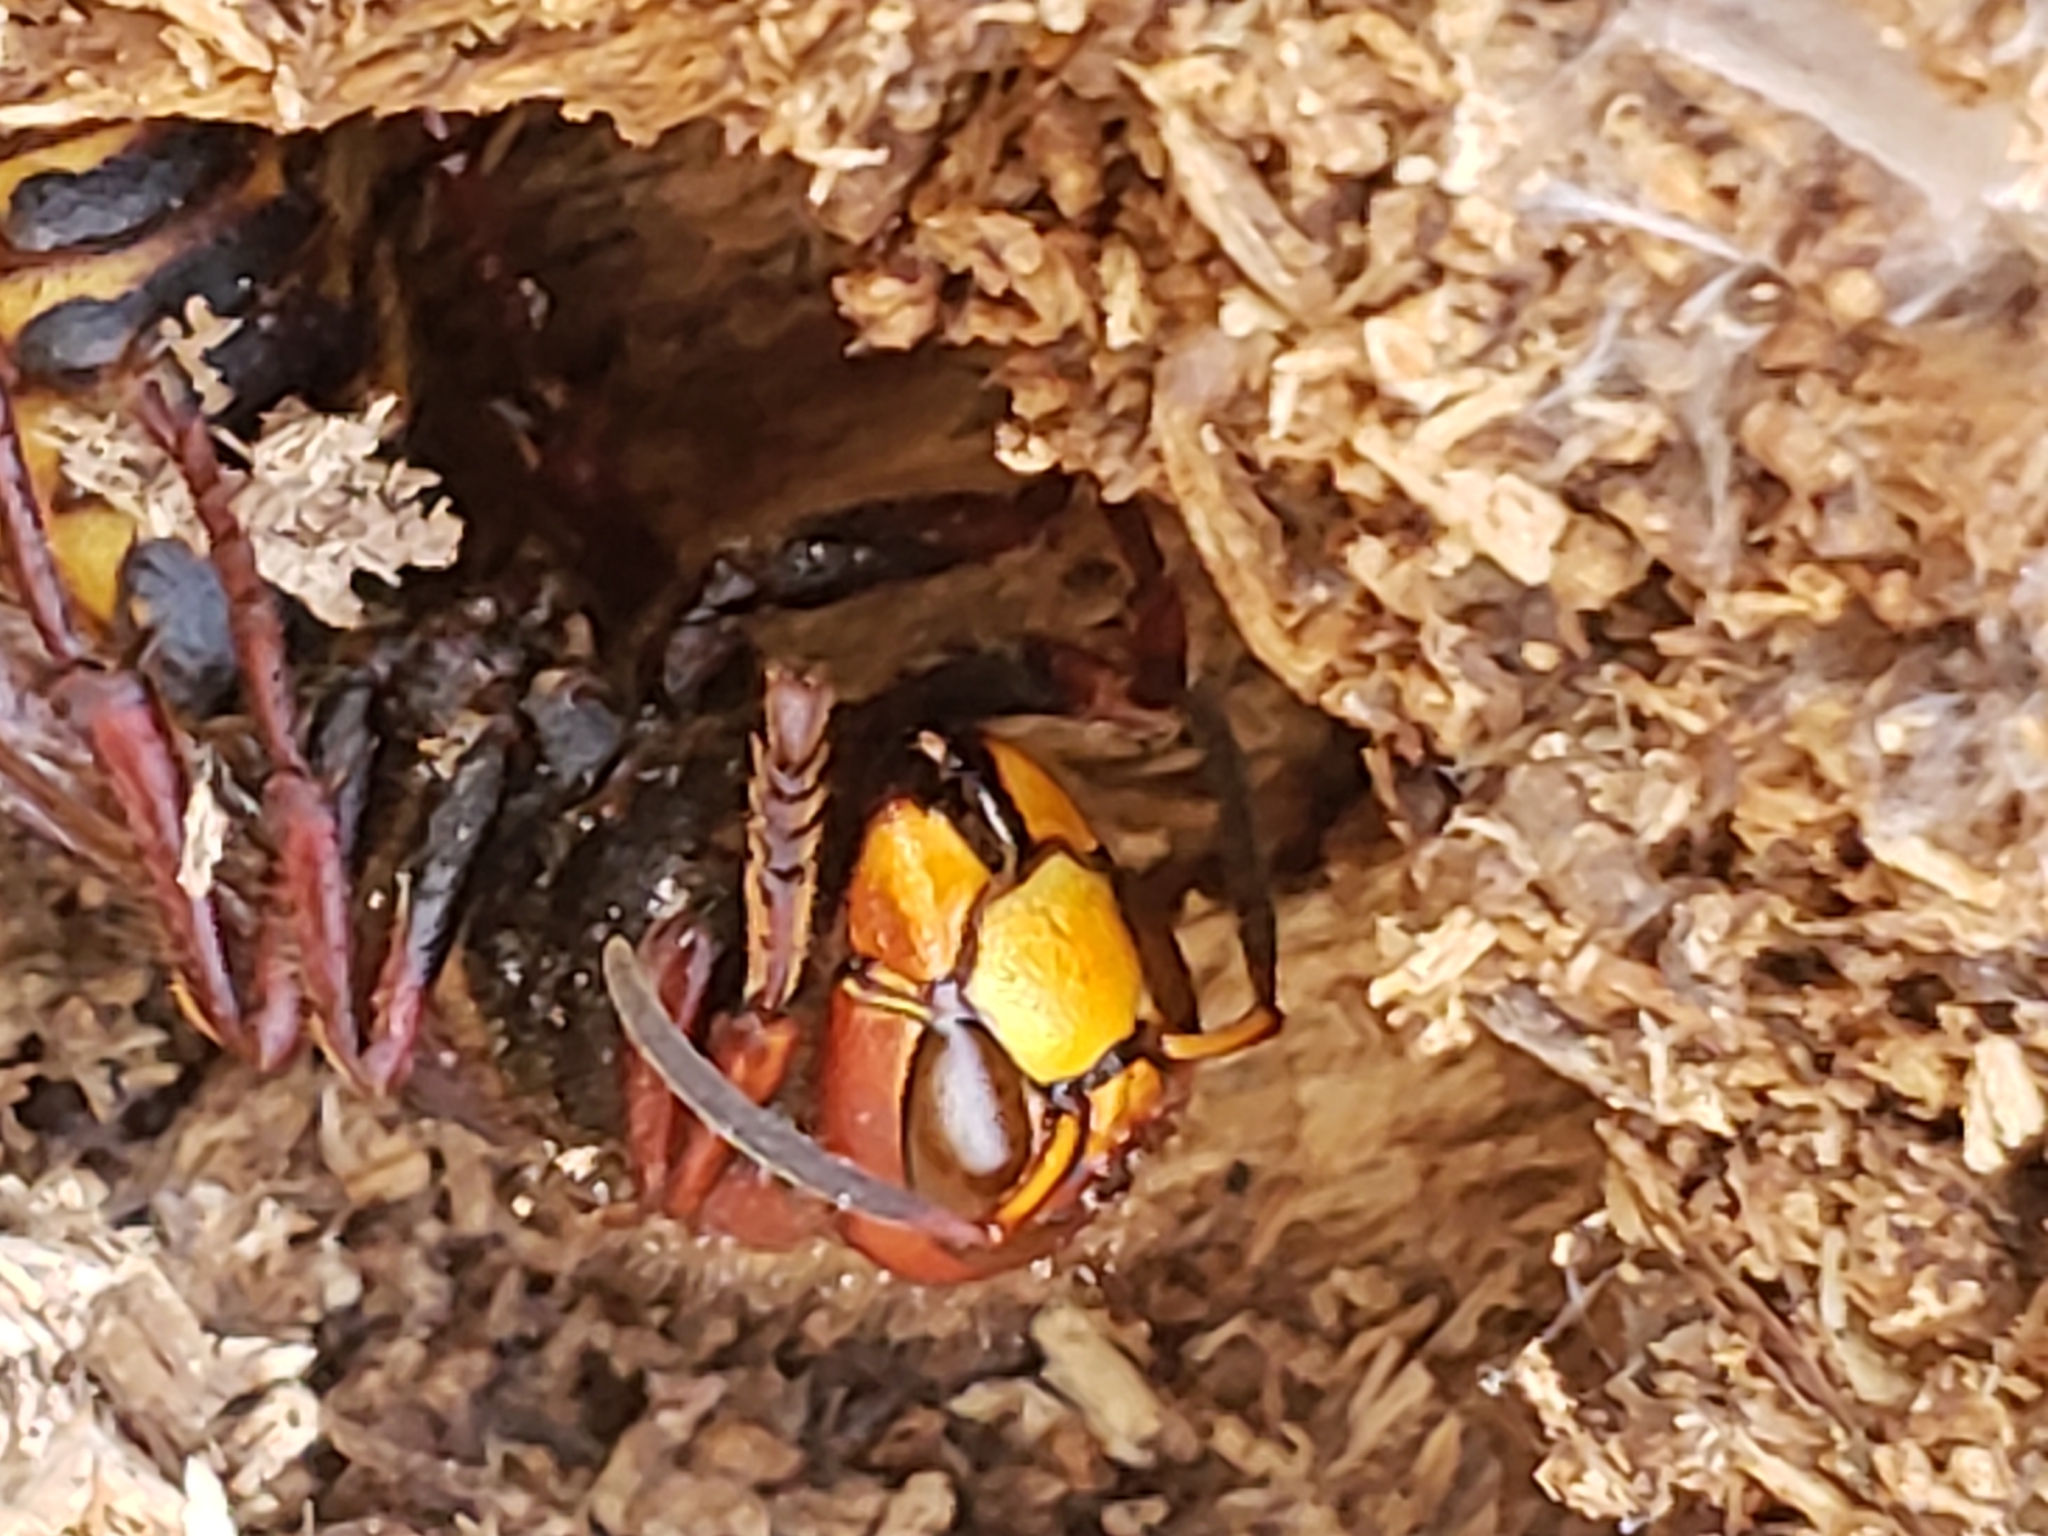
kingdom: Animalia
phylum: Arthropoda
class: Insecta
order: Hymenoptera
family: Vespidae
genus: Vespa
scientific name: Vespa crabro
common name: Hornet
